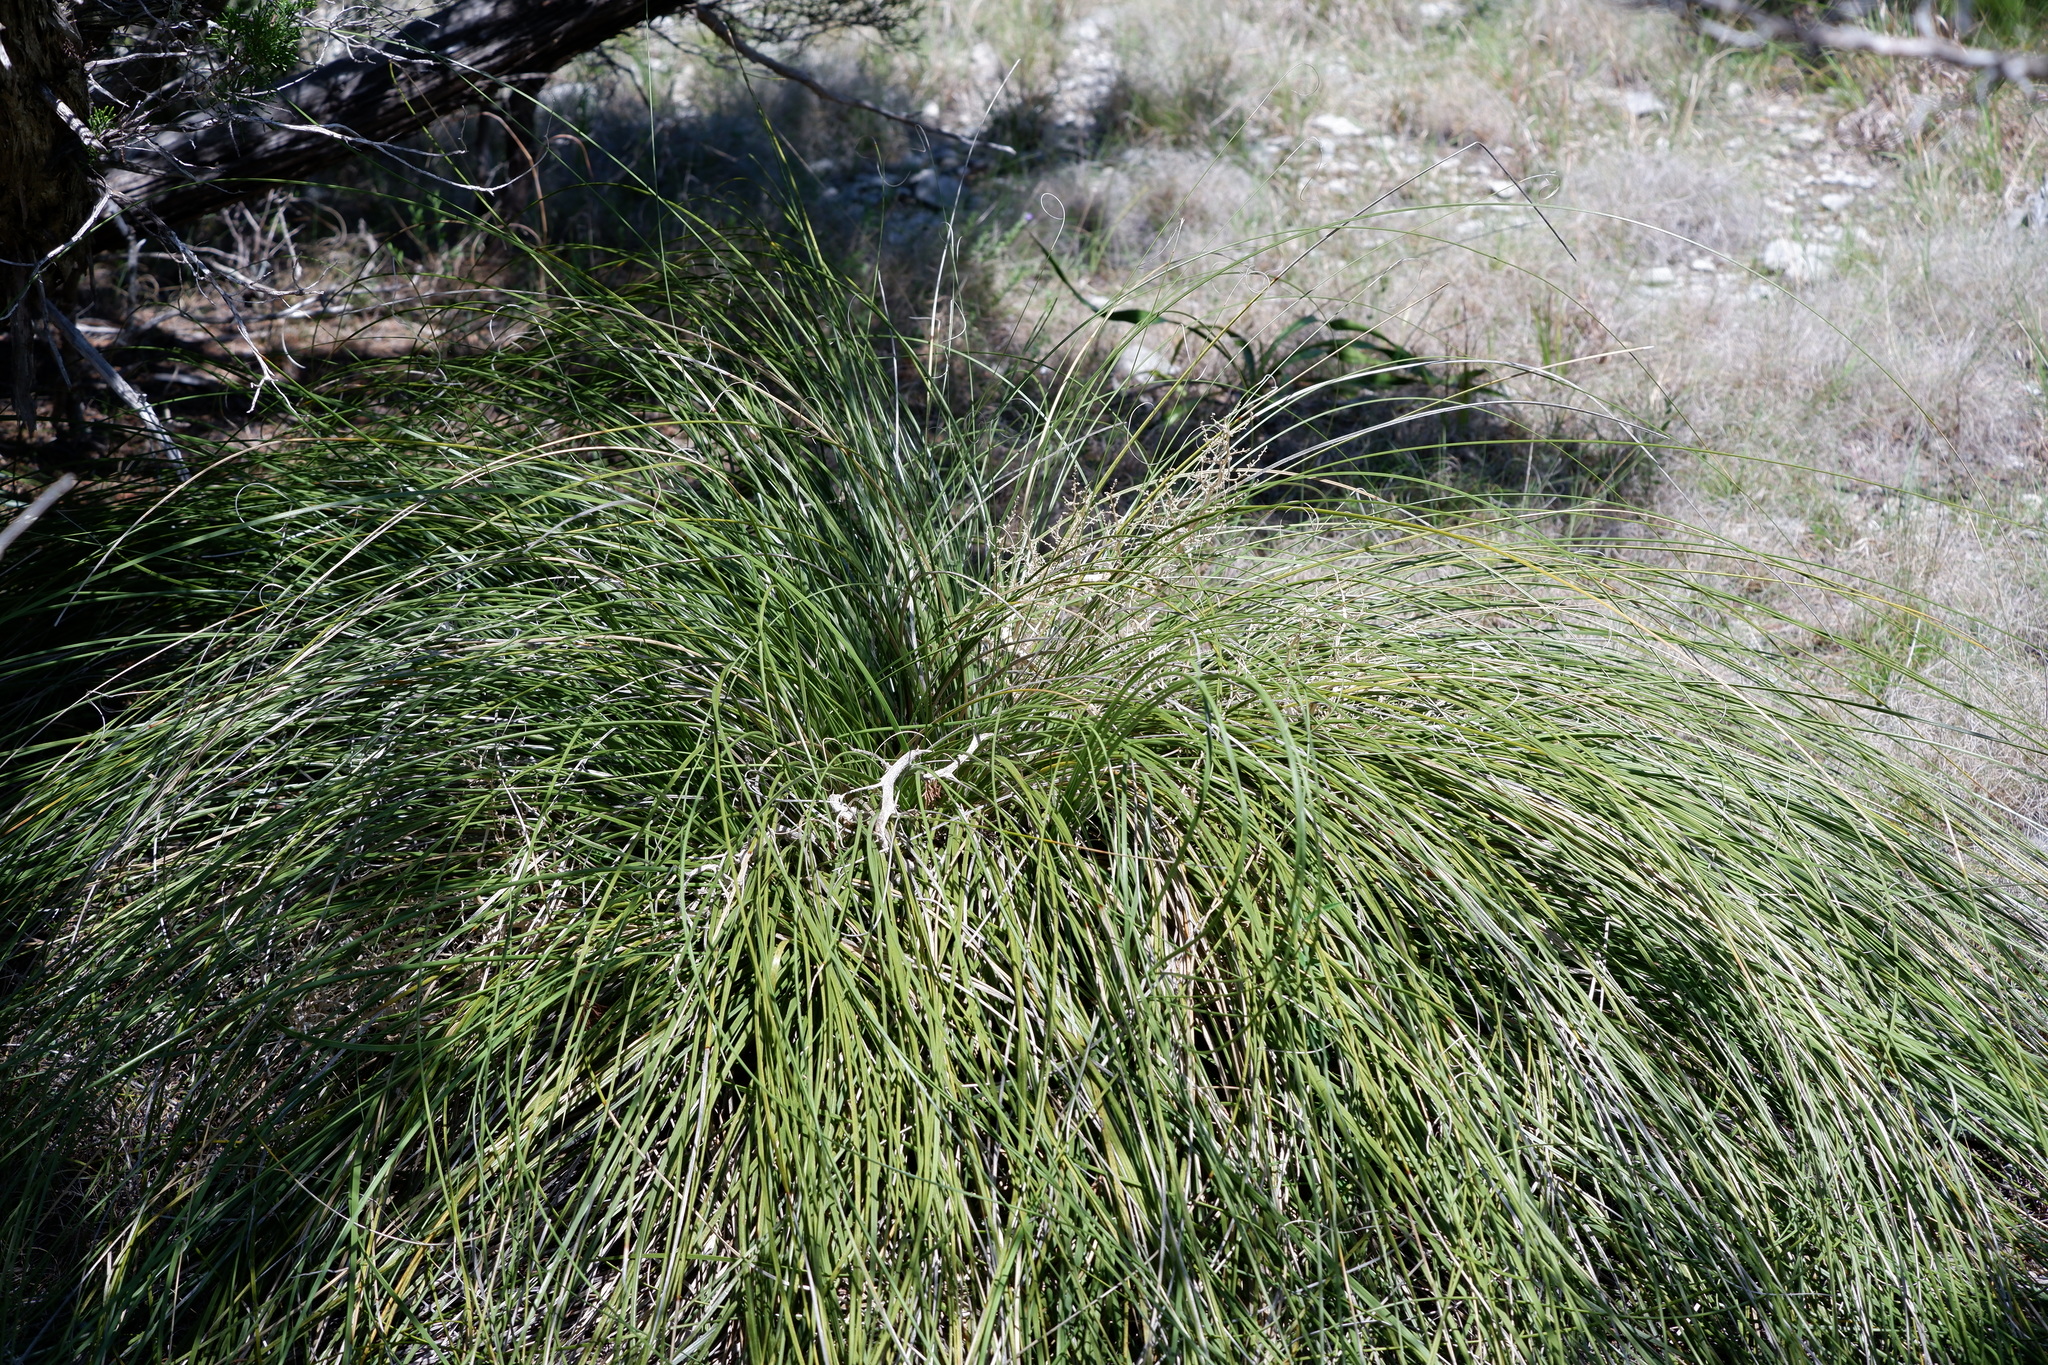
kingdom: Plantae
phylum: Tracheophyta
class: Liliopsida
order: Asparagales
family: Asparagaceae
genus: Nolina
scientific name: Nolina texana
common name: Texas sacahuiste
